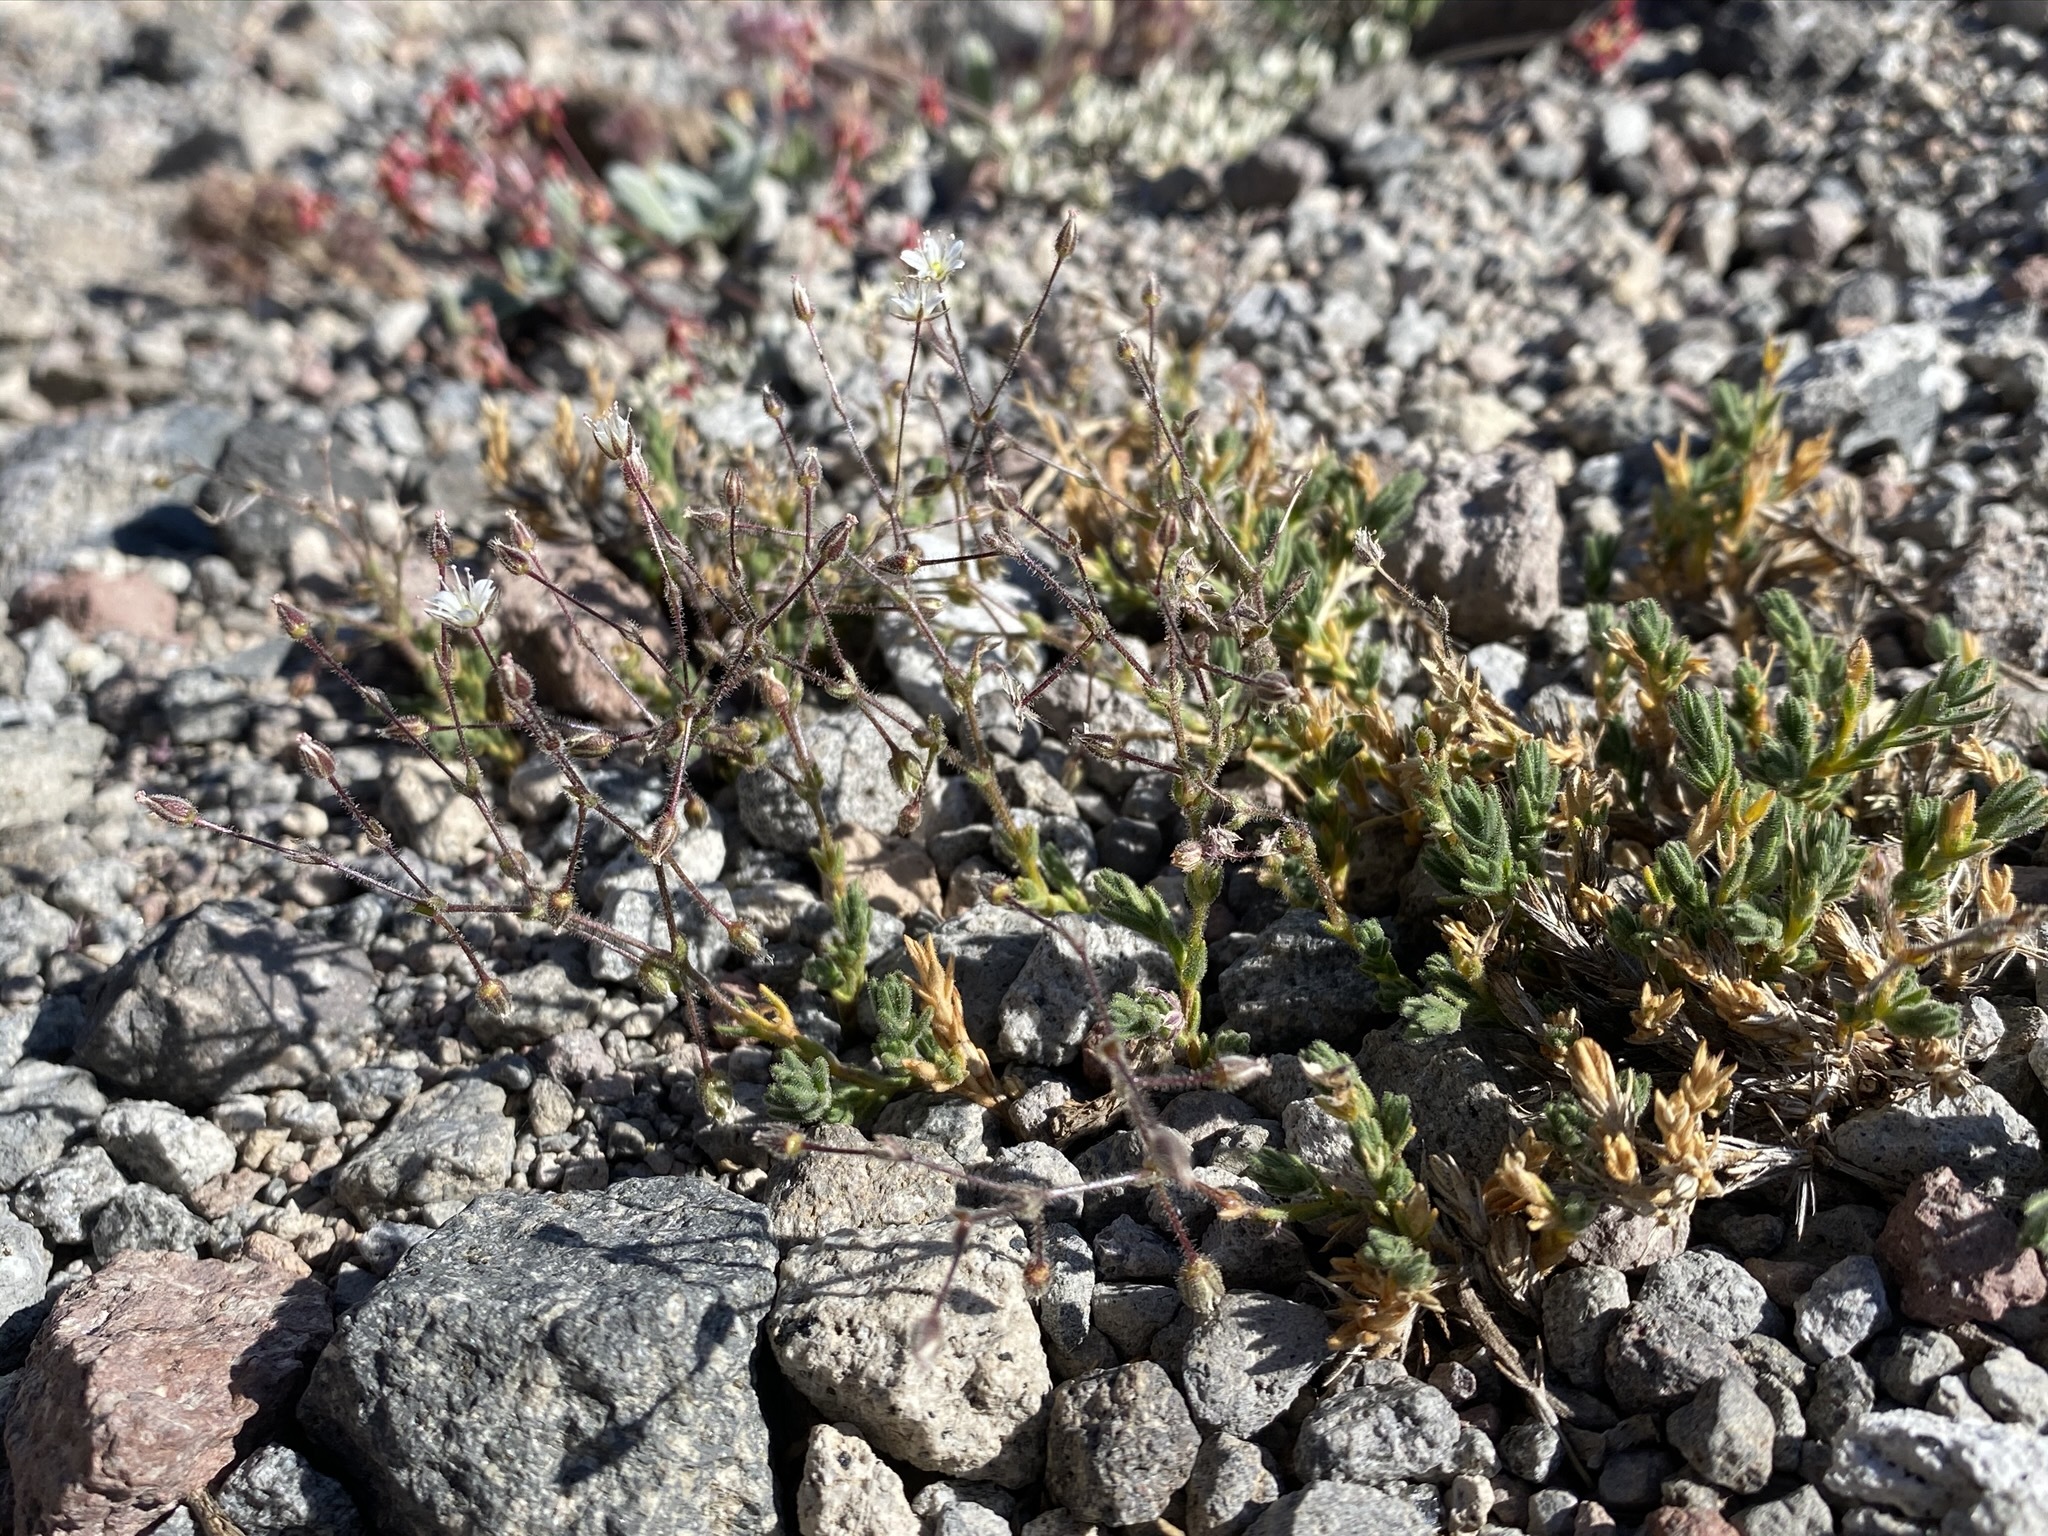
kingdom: Plantae
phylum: Tracheophyta
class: Magnoliopsida
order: Caryophyllales
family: Caryophyllaceae
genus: Sabulina
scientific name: Sabulina nuttallii
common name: Nuttall's stitchwort
